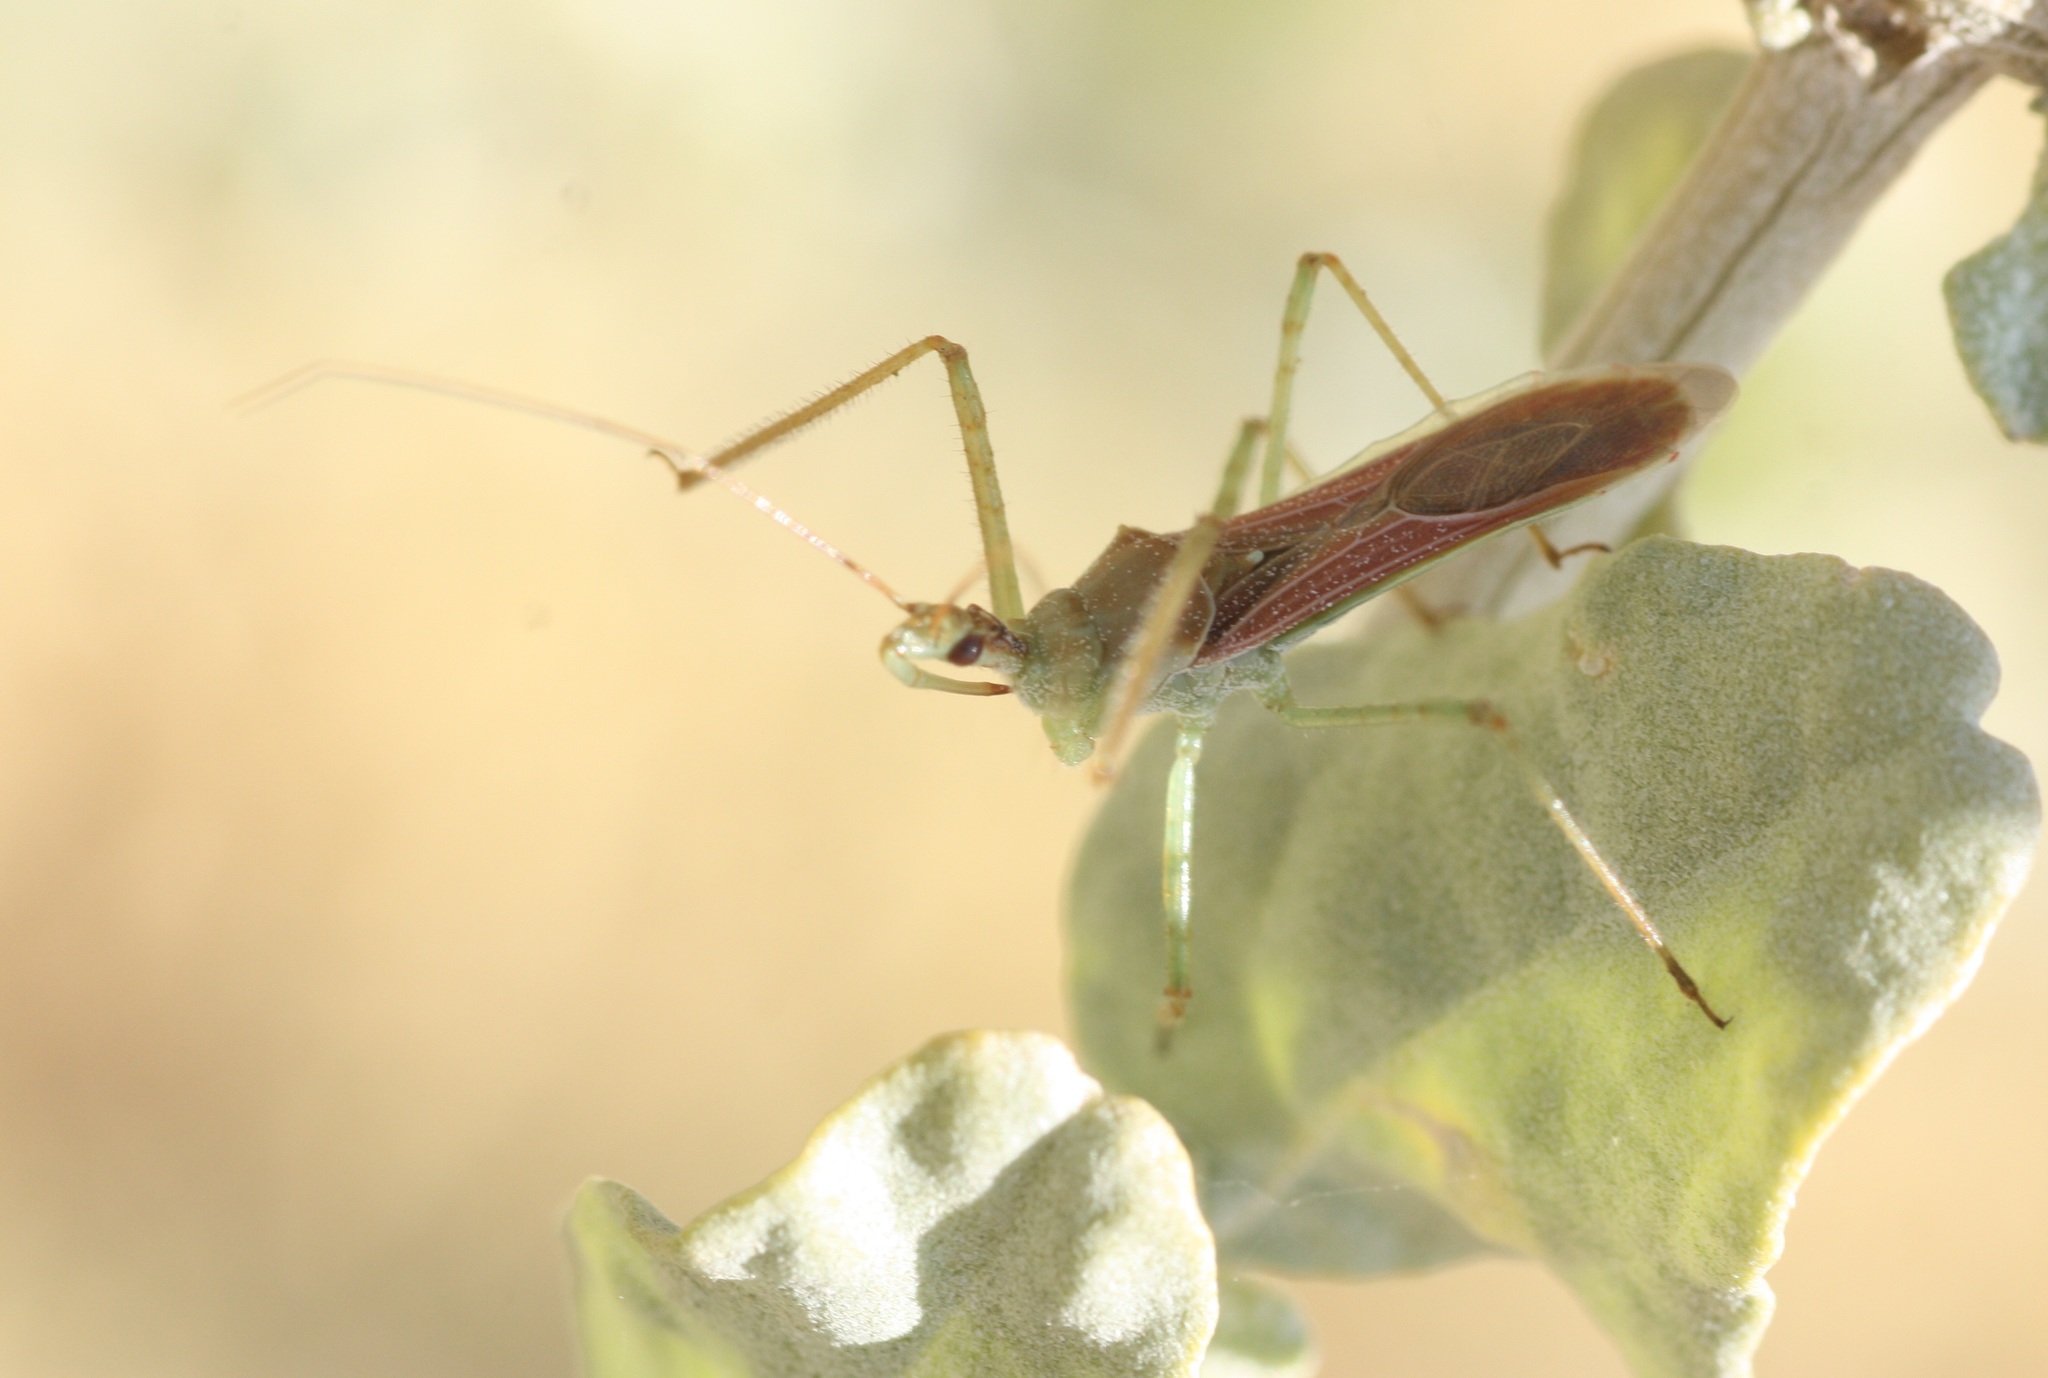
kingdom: Animalia
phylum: Arthropoda
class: Insecta
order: Hemiptera
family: Reduviidae
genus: Zelus
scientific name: Zelus renardii
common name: Assassin bug
